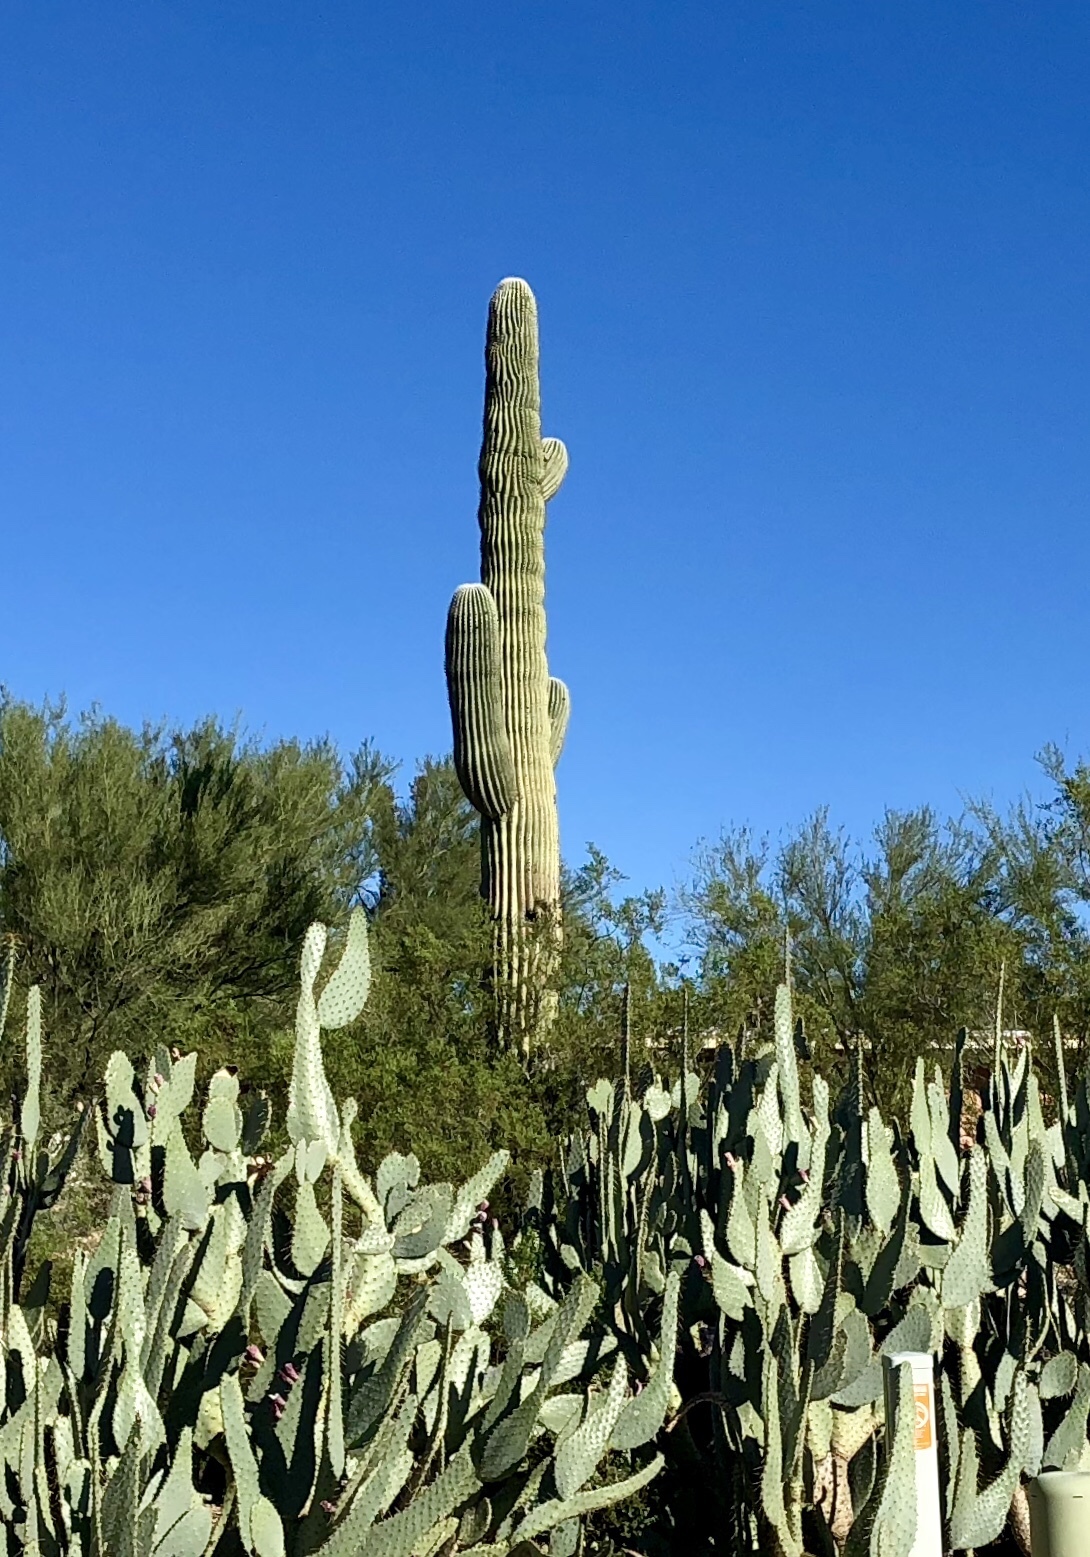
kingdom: Plantae
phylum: Tracheophyta
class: Magnoliopsida
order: Caryophyllales
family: Cactaceae
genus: Carnegiea
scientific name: Carnegiea gigantea
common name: Saguaro
